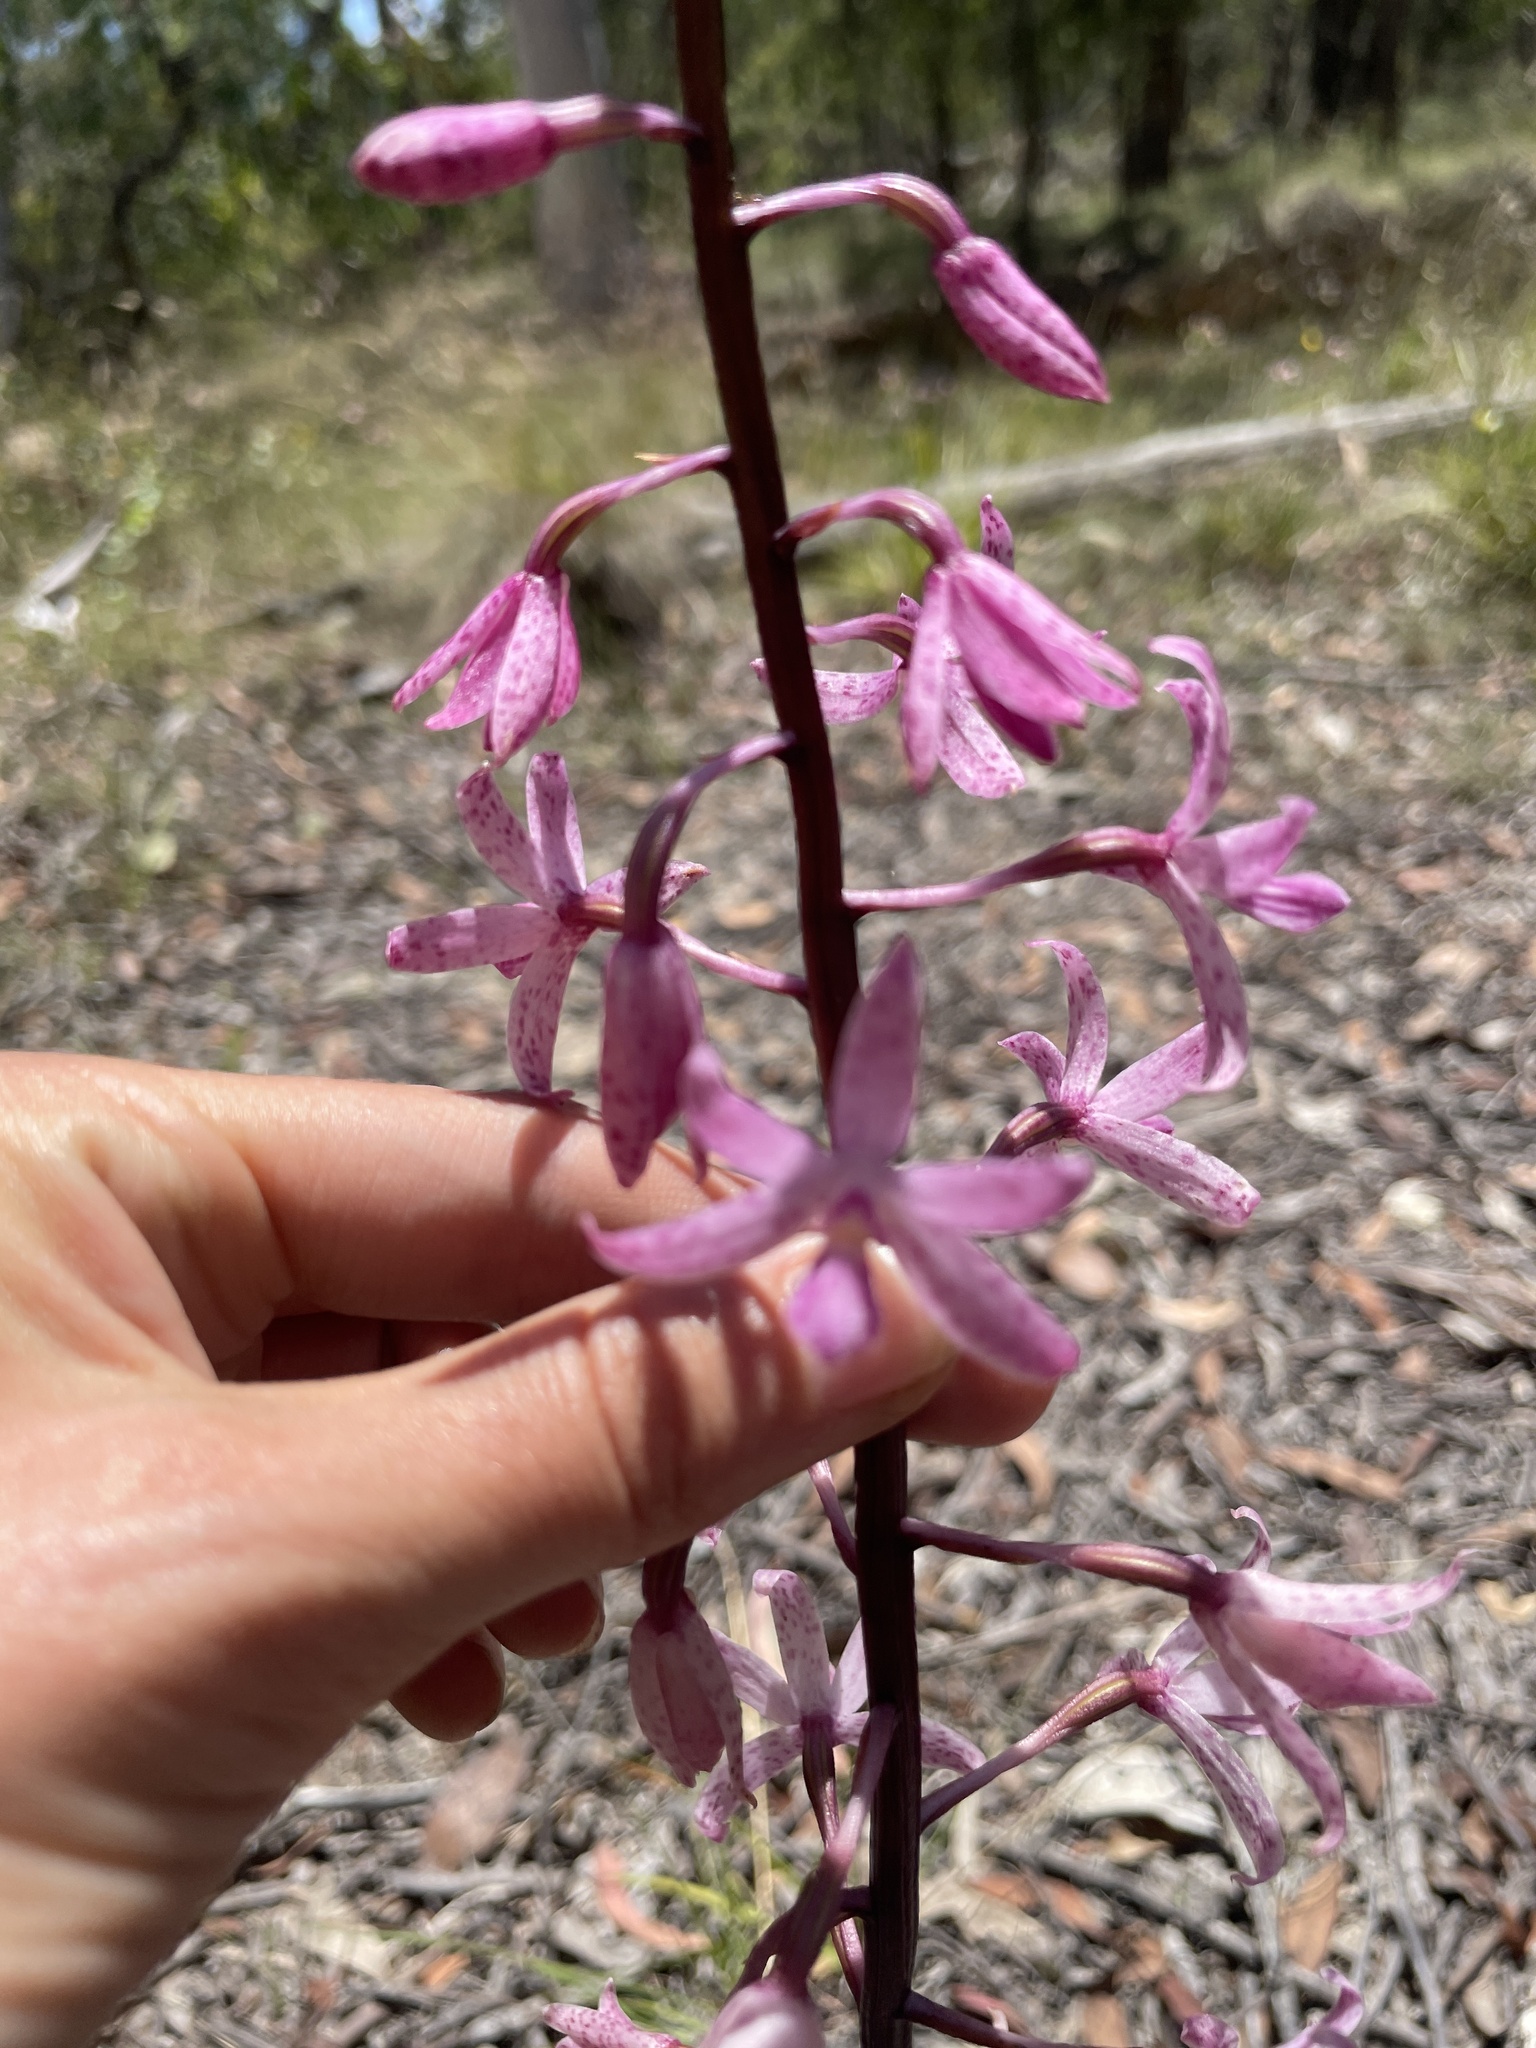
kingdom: Plantae
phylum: Tracheophyta
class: Liliopsida
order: Asparagales
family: Orchidaceae
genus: Dipodium
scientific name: Dipodium roseum
